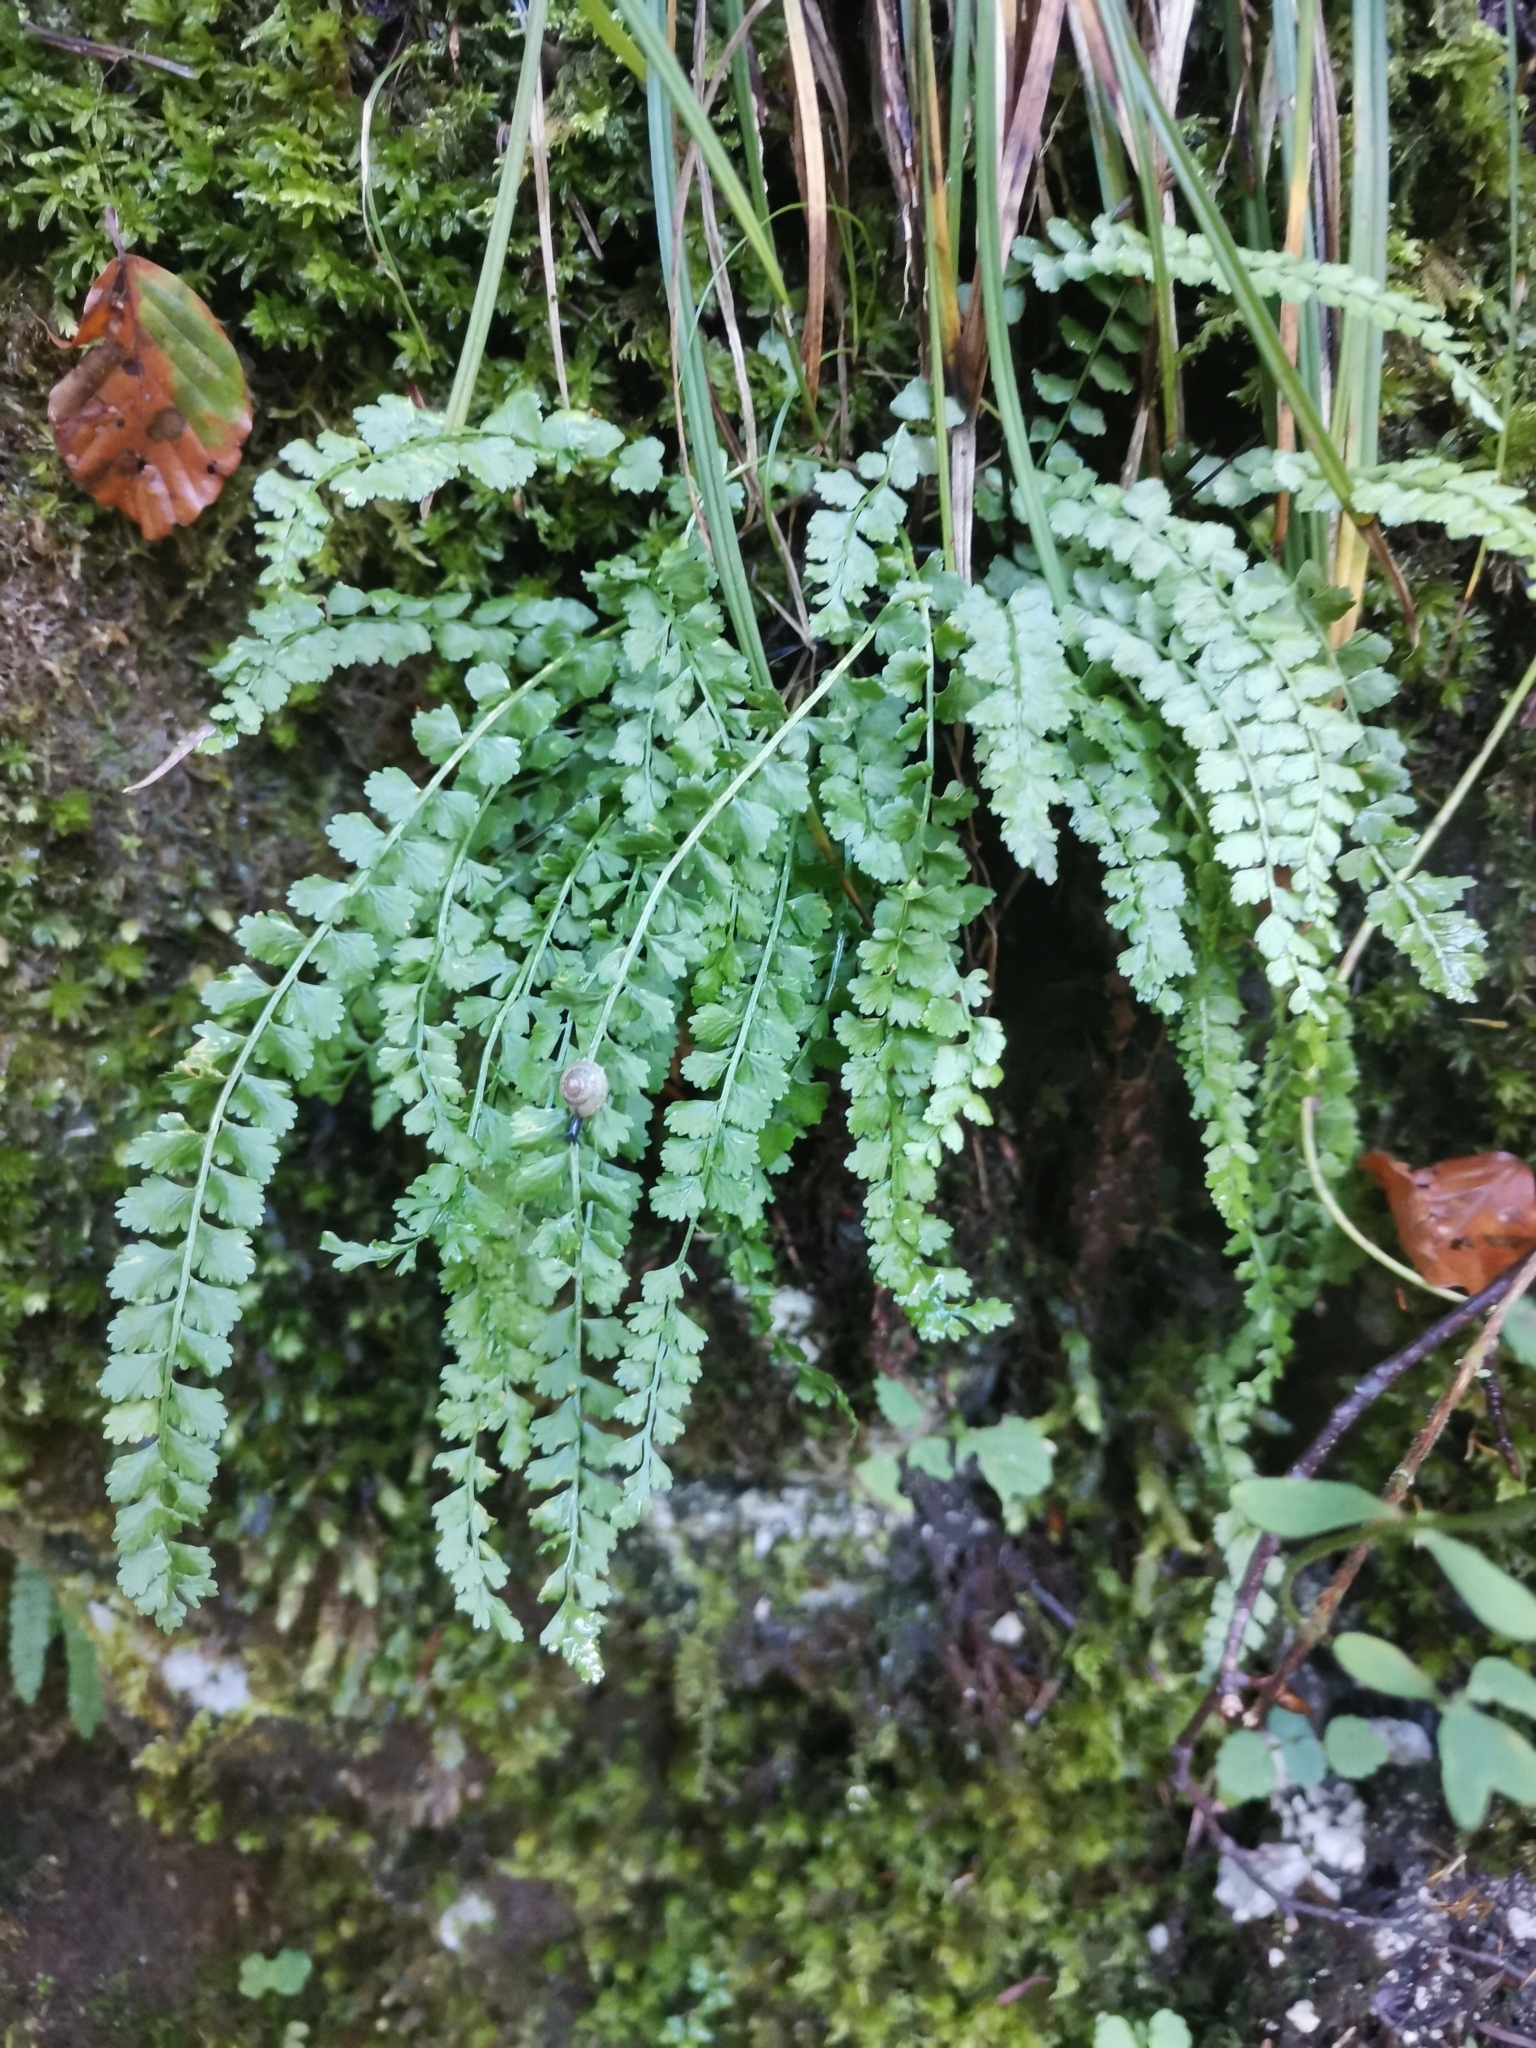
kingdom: Plantae
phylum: Tracheophyta
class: Polypodiopsida
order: Polypodiales
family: Aspleniaceae
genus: Asplenium
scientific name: Asplenium viride
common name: Green spleenwort
